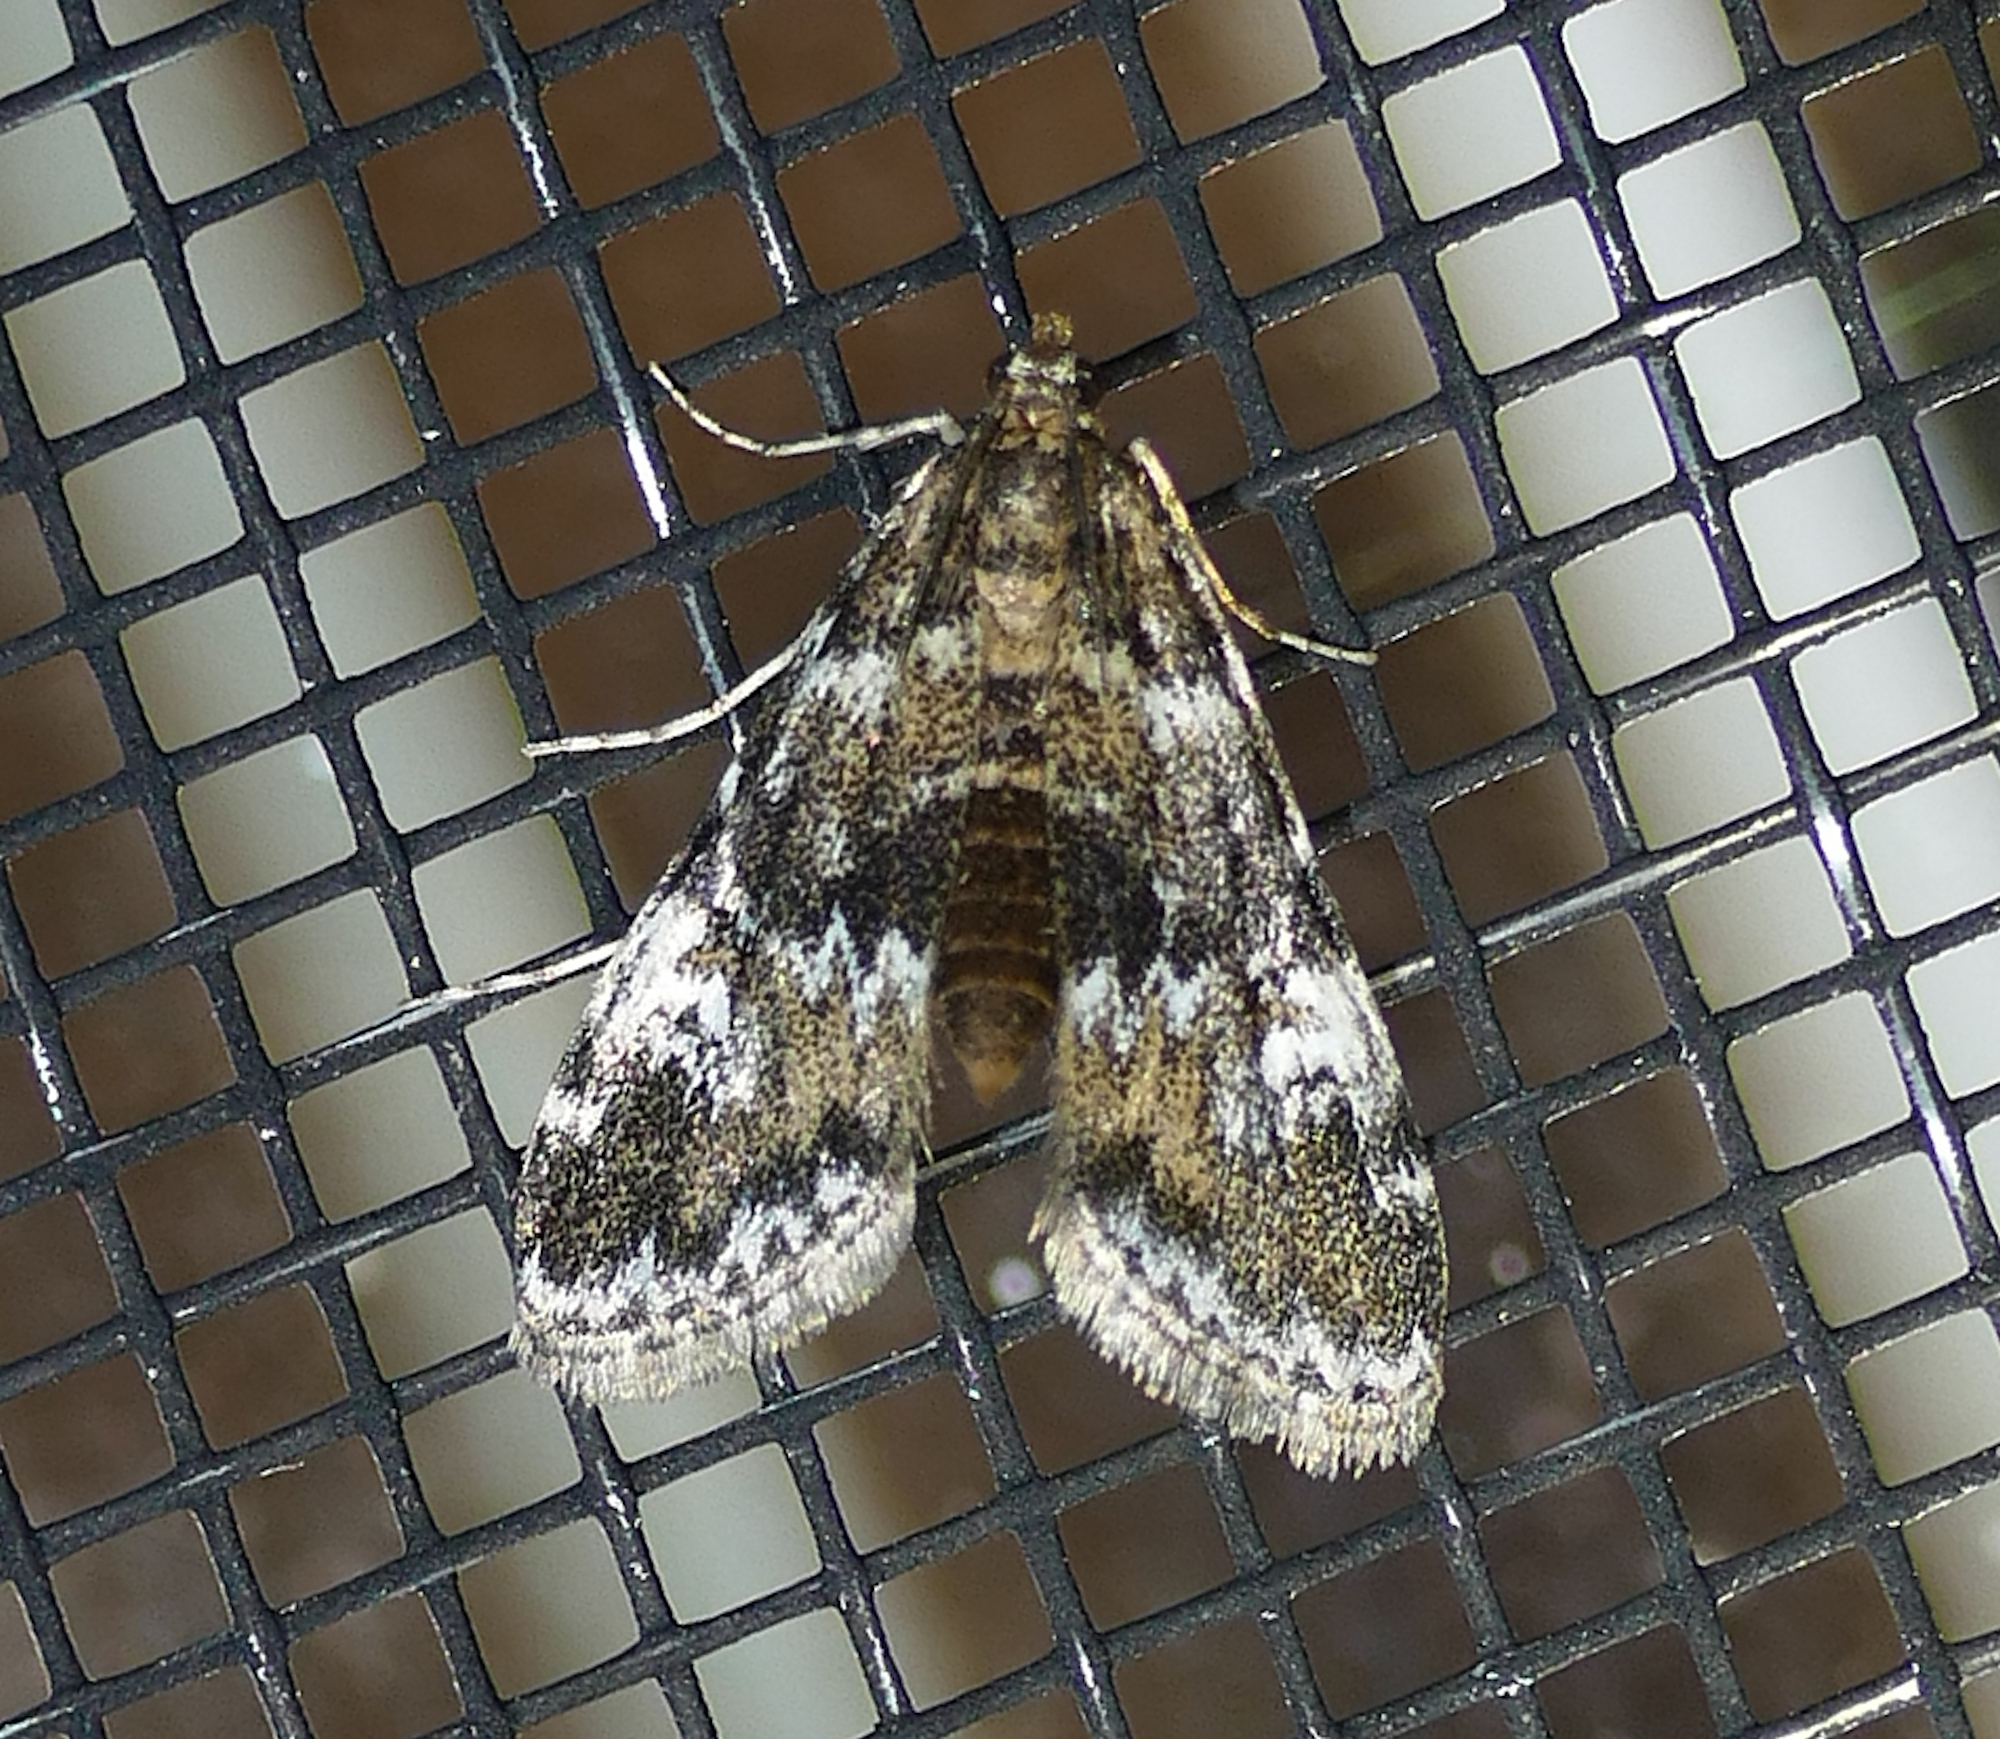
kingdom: Animalia
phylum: Arthropoda
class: Insecta
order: Lepidoptera
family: Crambidae
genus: Elophila
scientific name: Elophila obliteralis
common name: Waterlily leafcutter moth
